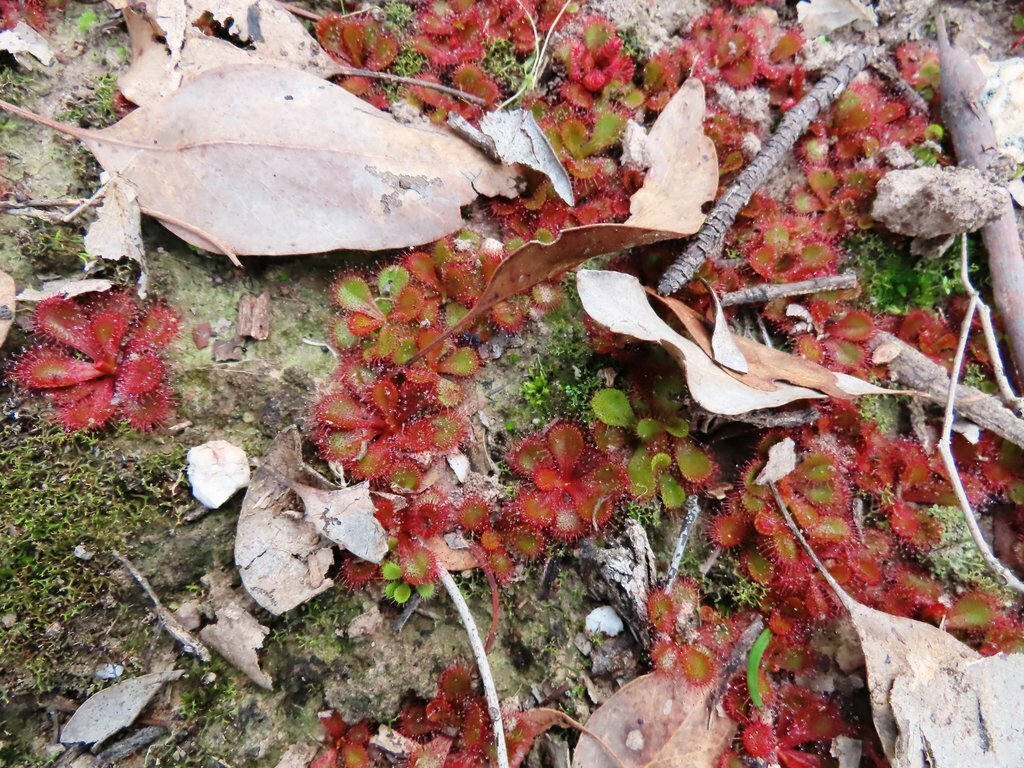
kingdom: Plantae
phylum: Tracheophyta
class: Magnoliopsida
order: Caryophyllales
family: Droseraceae
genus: Drosera
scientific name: Drosera aberrans
